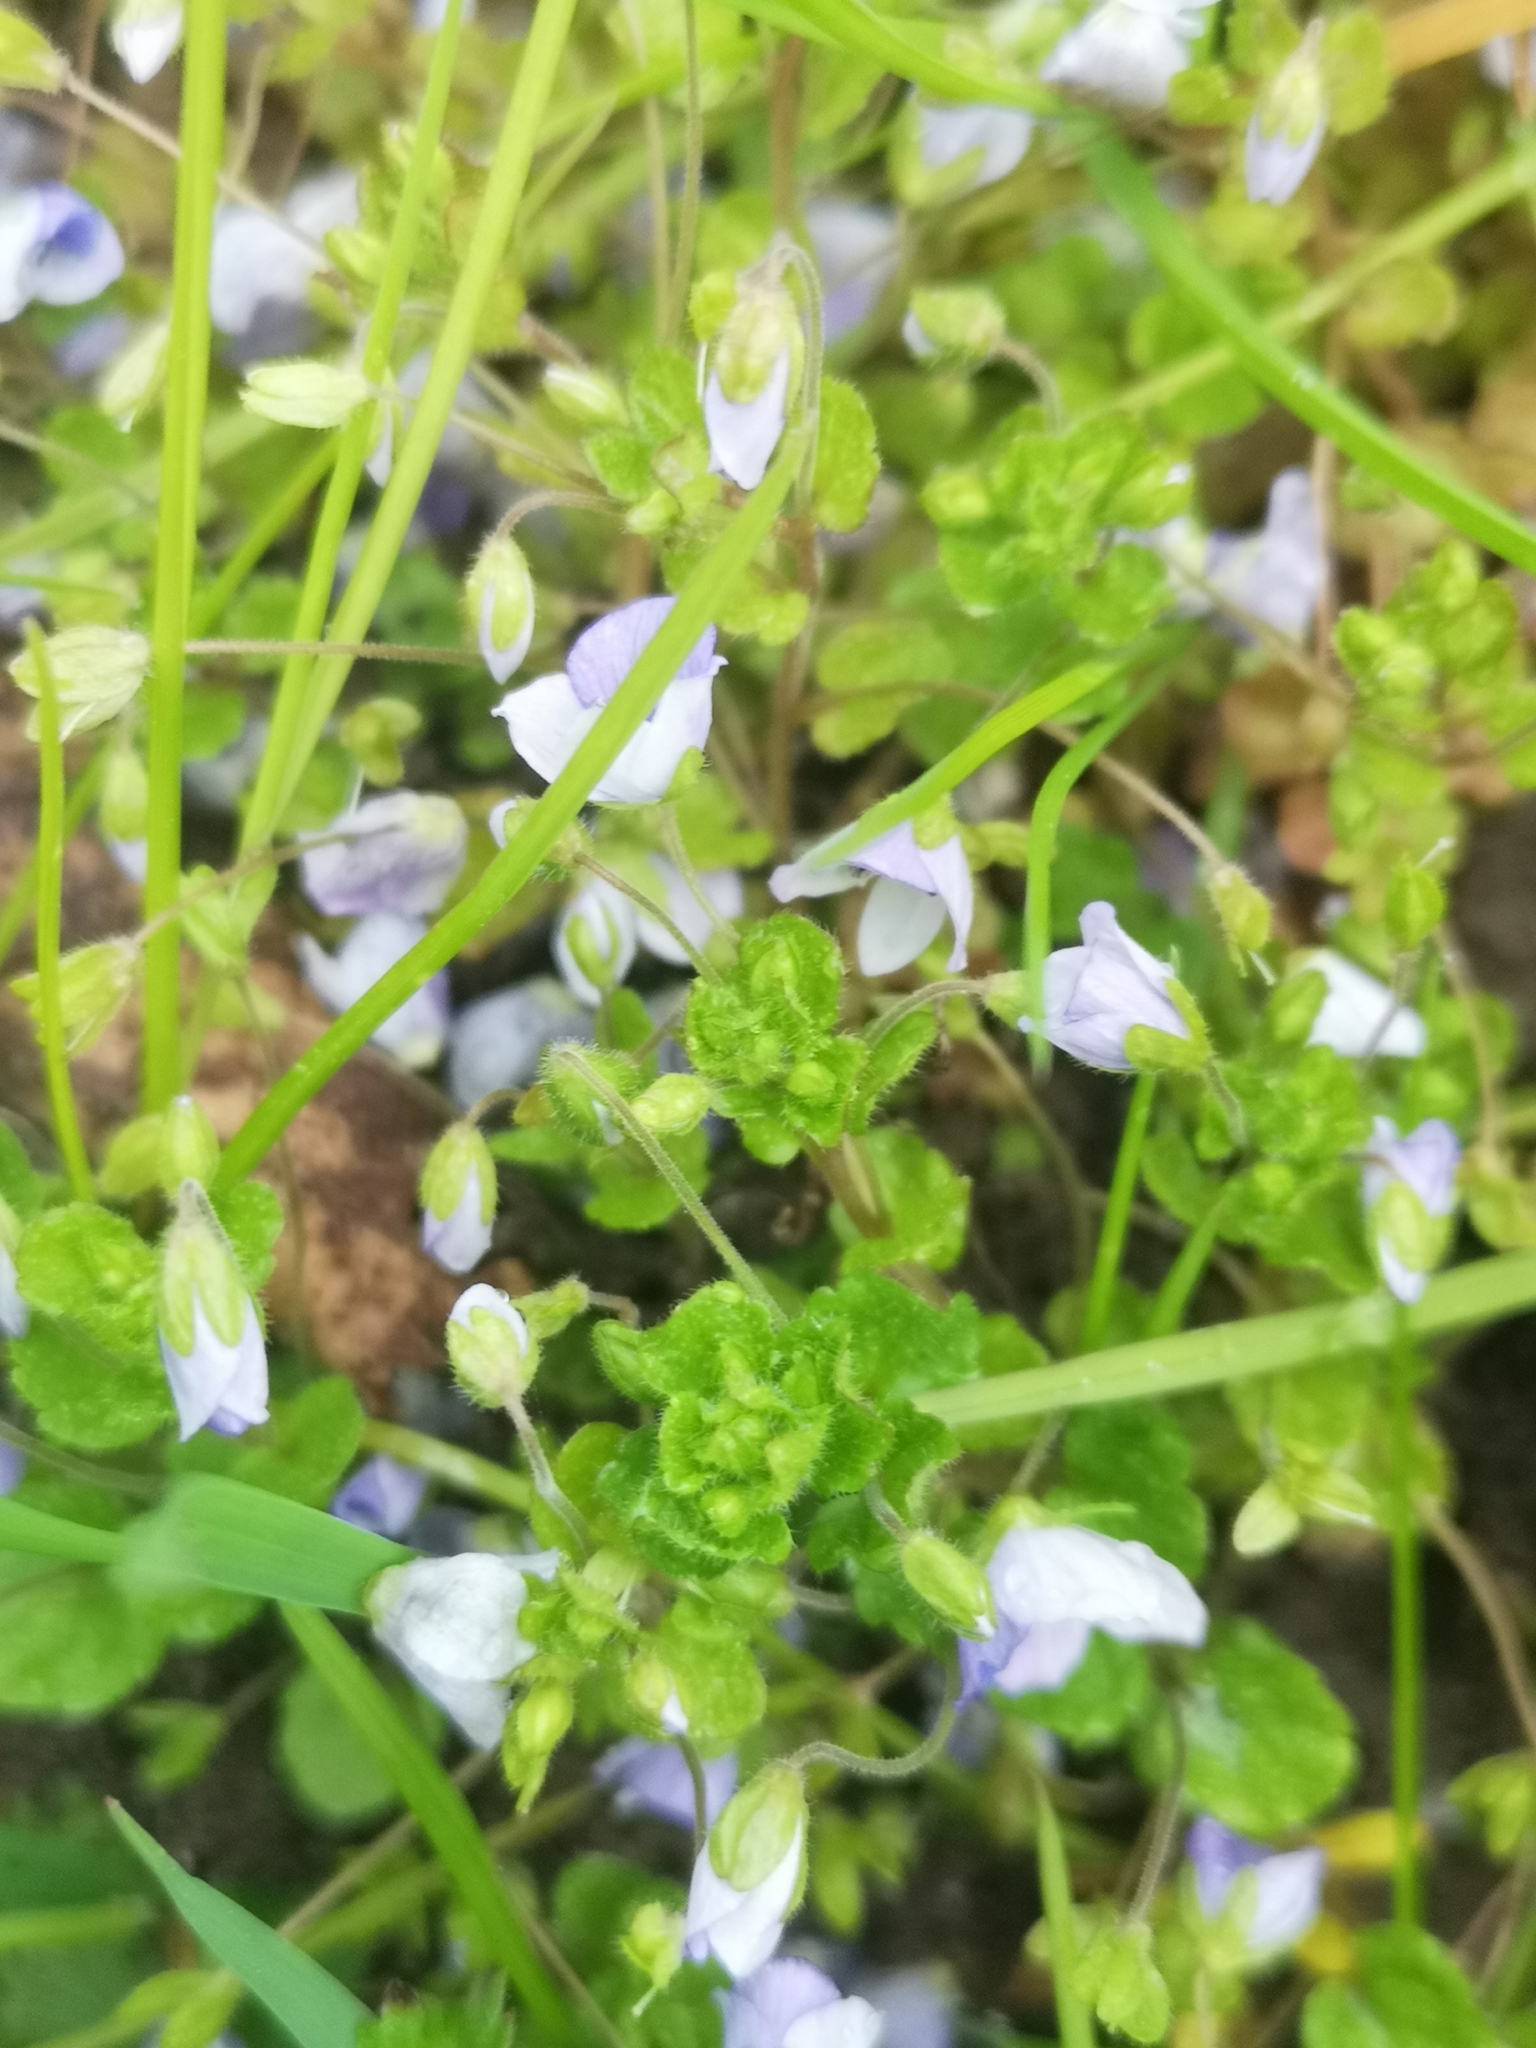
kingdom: Plantae
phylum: Tracheophyta
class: Magnoliopsida
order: Lamiales
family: Plantaginaceae
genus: Veronica
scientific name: Veronica filiformis
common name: Slender speedwell
